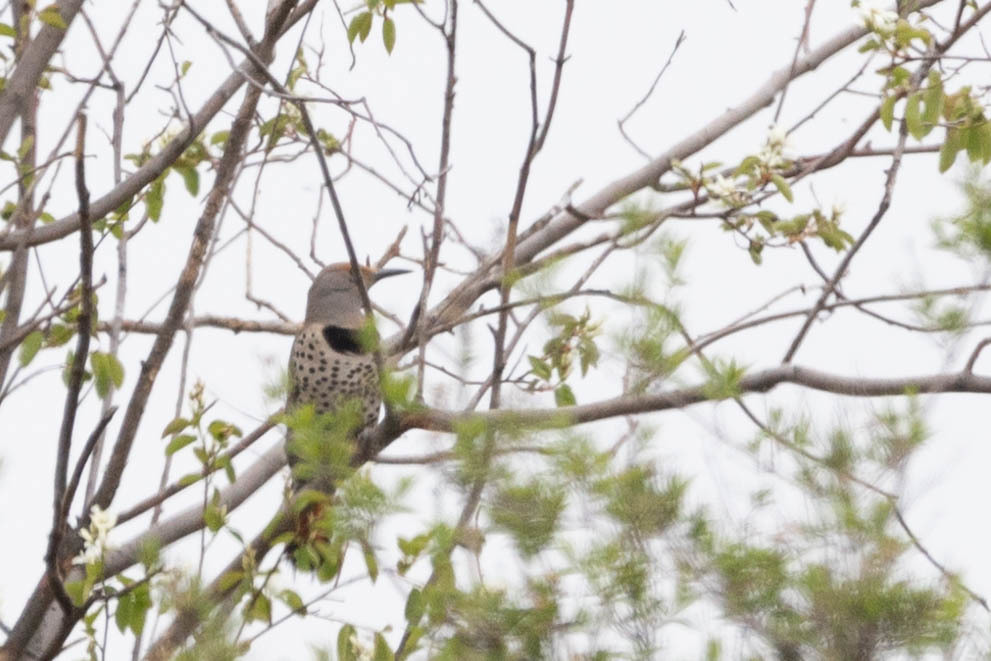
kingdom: Animalia
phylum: Chordata
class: Aves
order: Piciformes
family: Picidae
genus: Colaptes
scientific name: Colaptes auratus
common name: Northern flicker
